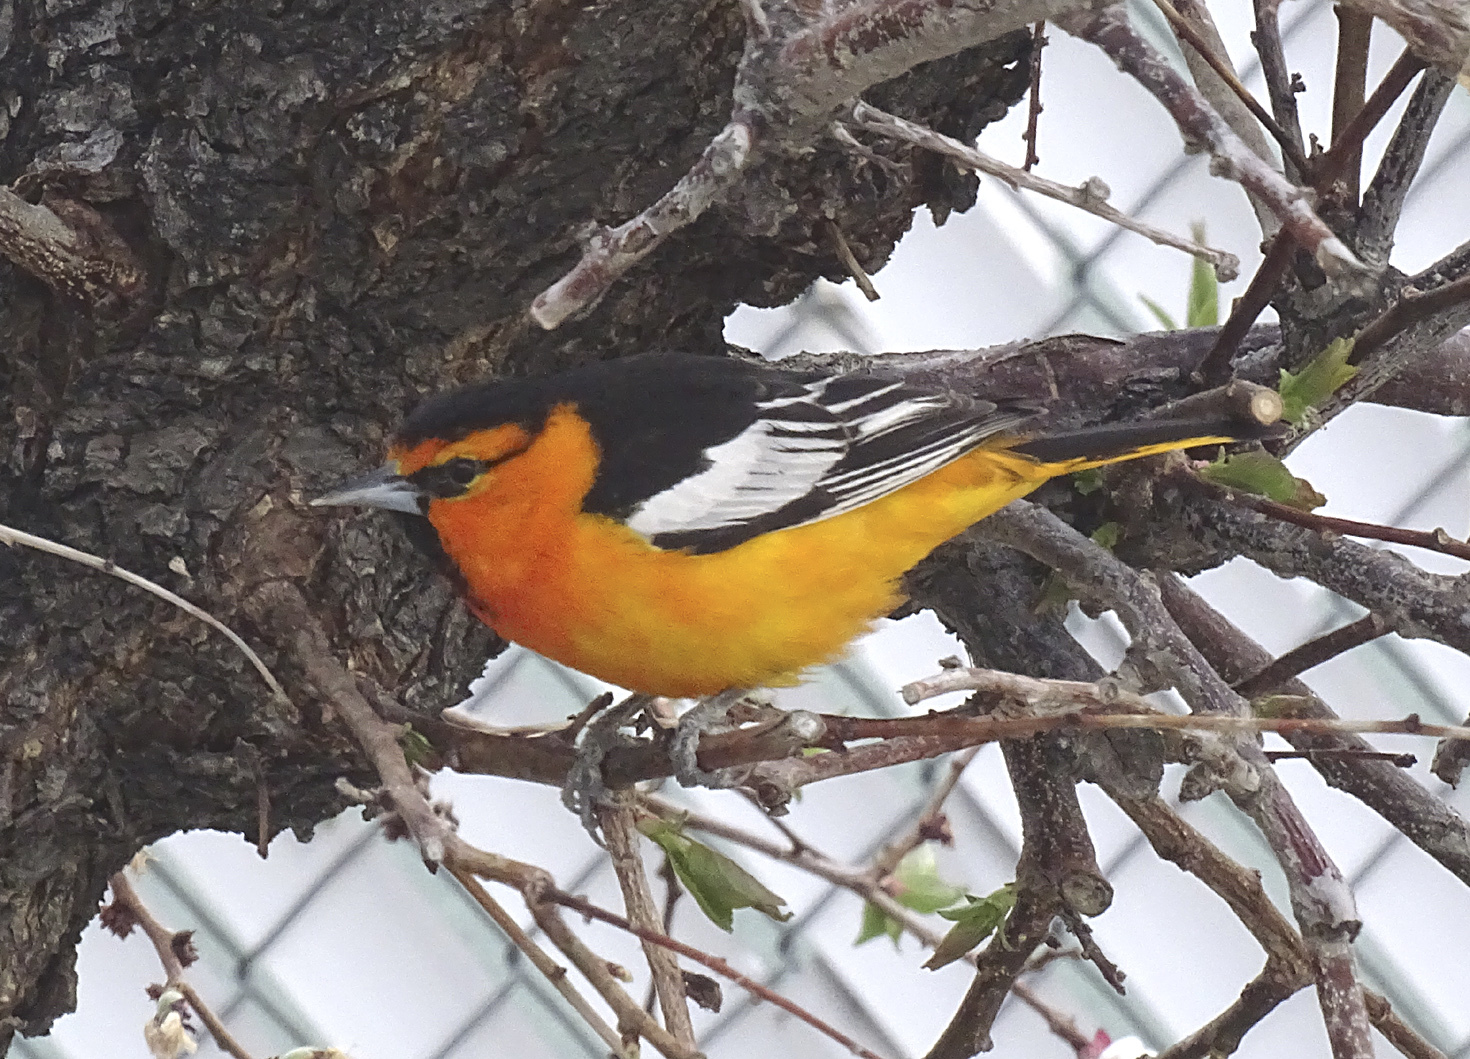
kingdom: Animalia
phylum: Chordata
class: Aves
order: Passeriformes
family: Icteridae
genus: Icterus
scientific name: Icterus bullockii
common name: Bullock's oriole
